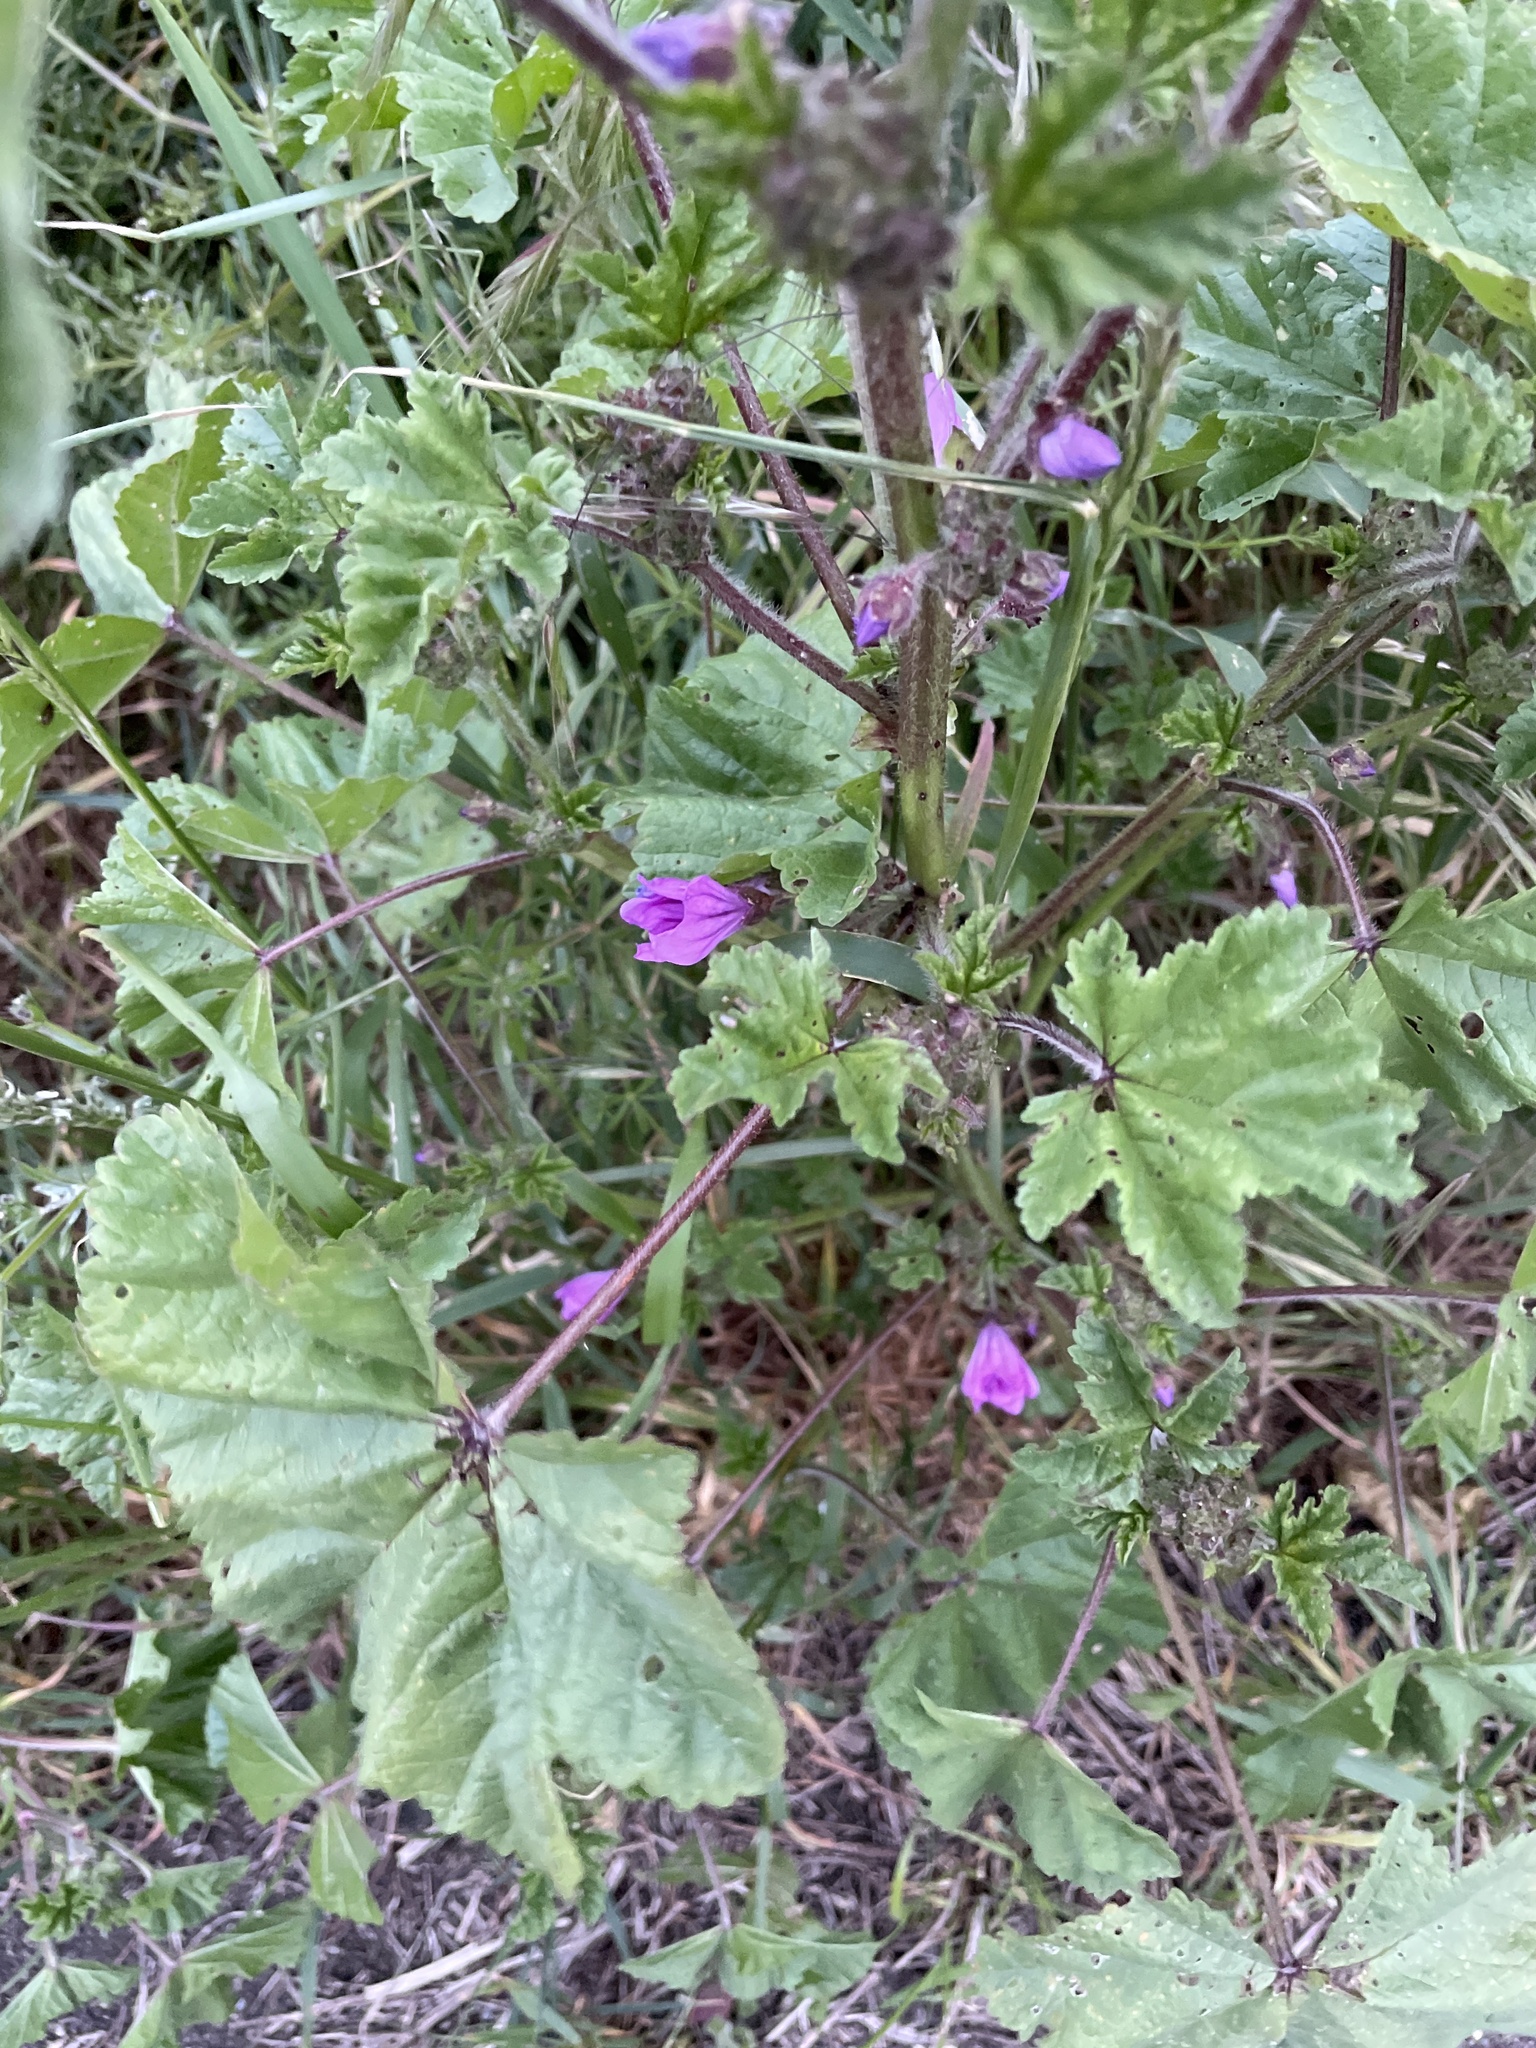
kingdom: Plantae
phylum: Tracheophyta
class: Magnoliopsida
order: Malvales
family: Malvaceae
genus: Malva
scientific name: Malva sylvestris
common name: Common mallow
